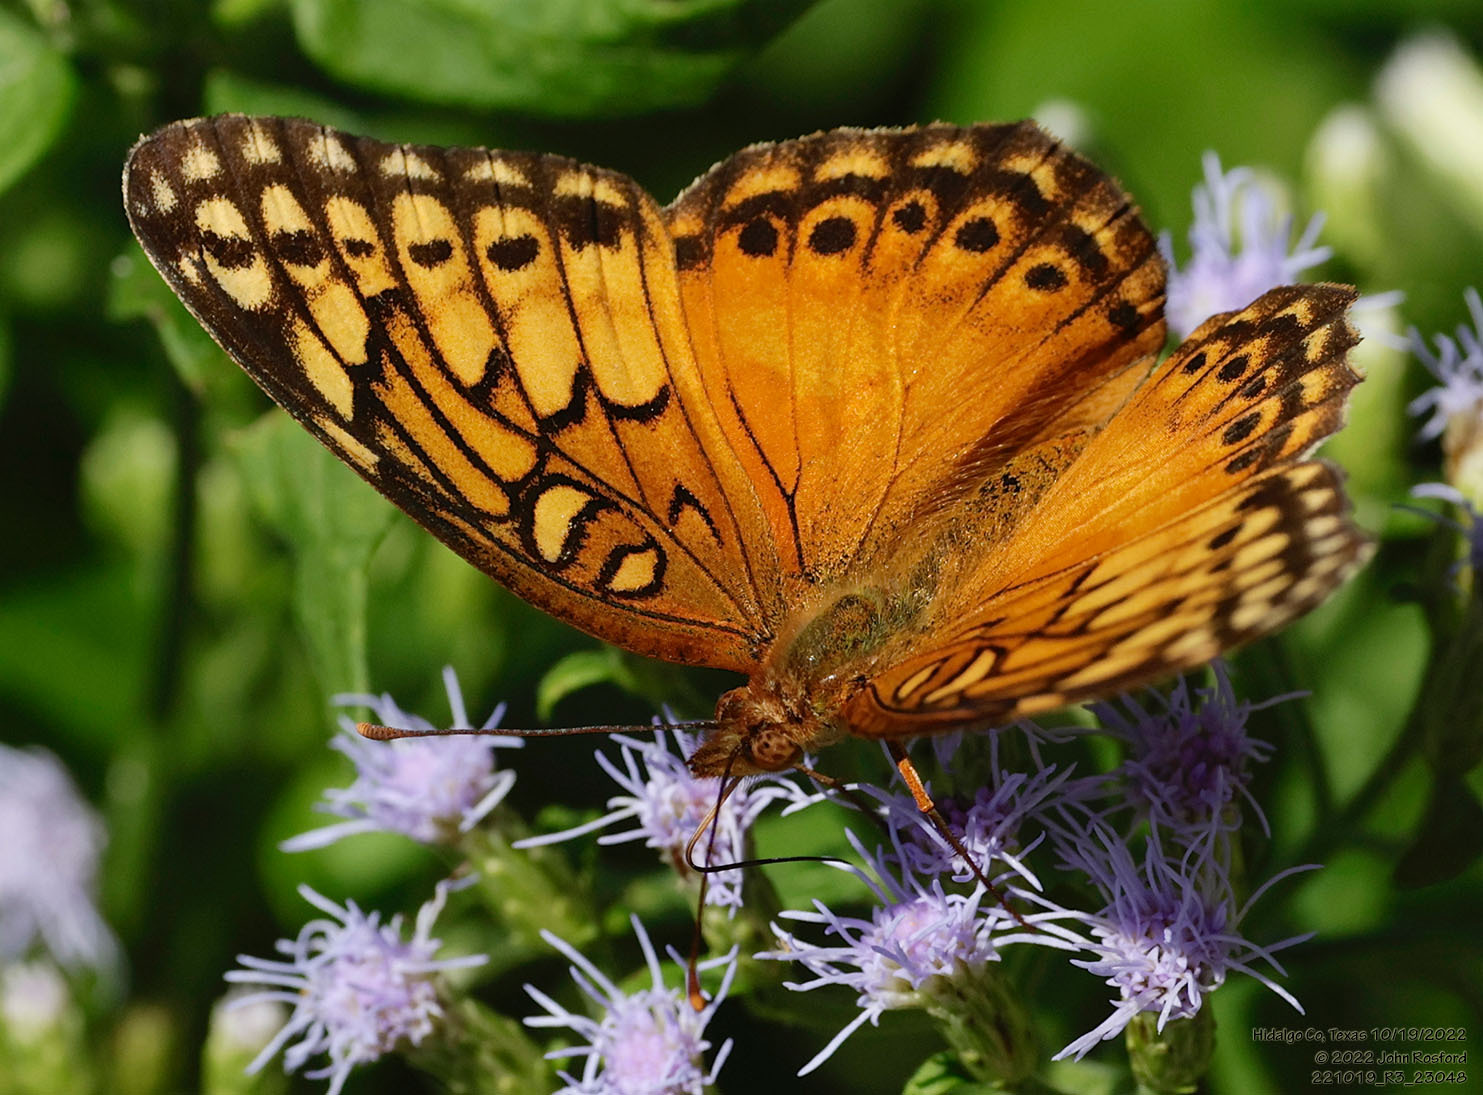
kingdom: Animalia
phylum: Arthropoda
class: Insecta
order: Lepidoptera
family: Nymphalidae
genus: Euptoieta
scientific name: Euptoieta hegesia
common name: Mexican fritillary
